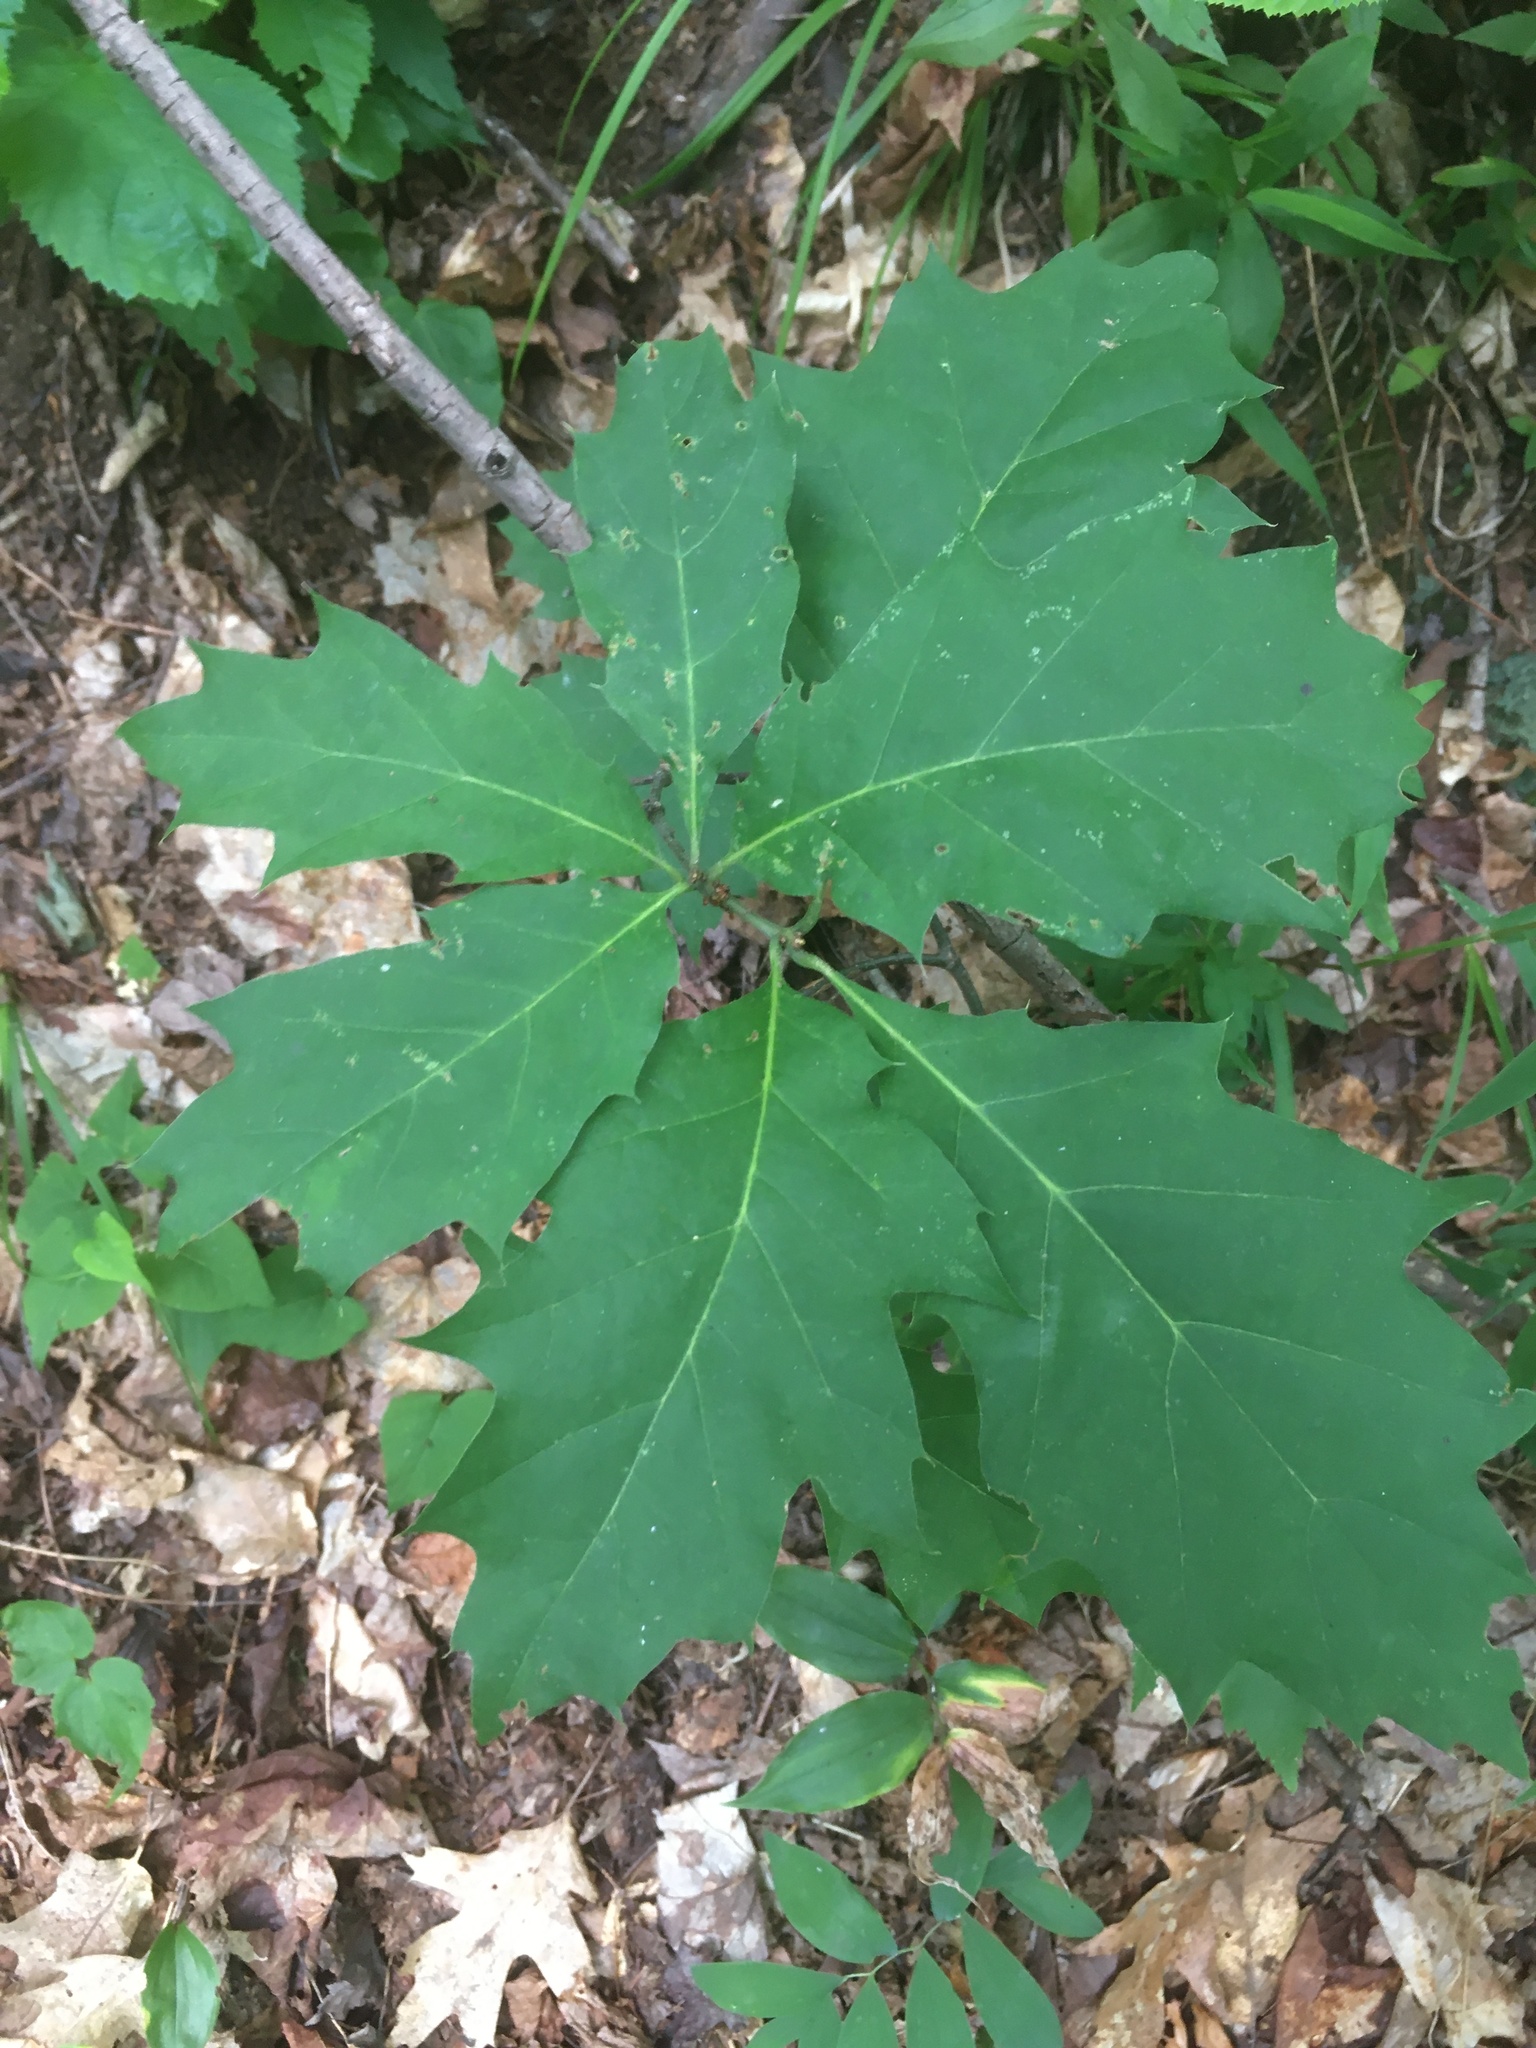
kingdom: Plantae
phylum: Tracheophyta
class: Magnoliopsida
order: Fagales
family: Fagaceae
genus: Quercus
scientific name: Quercus rubra
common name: Red oak
